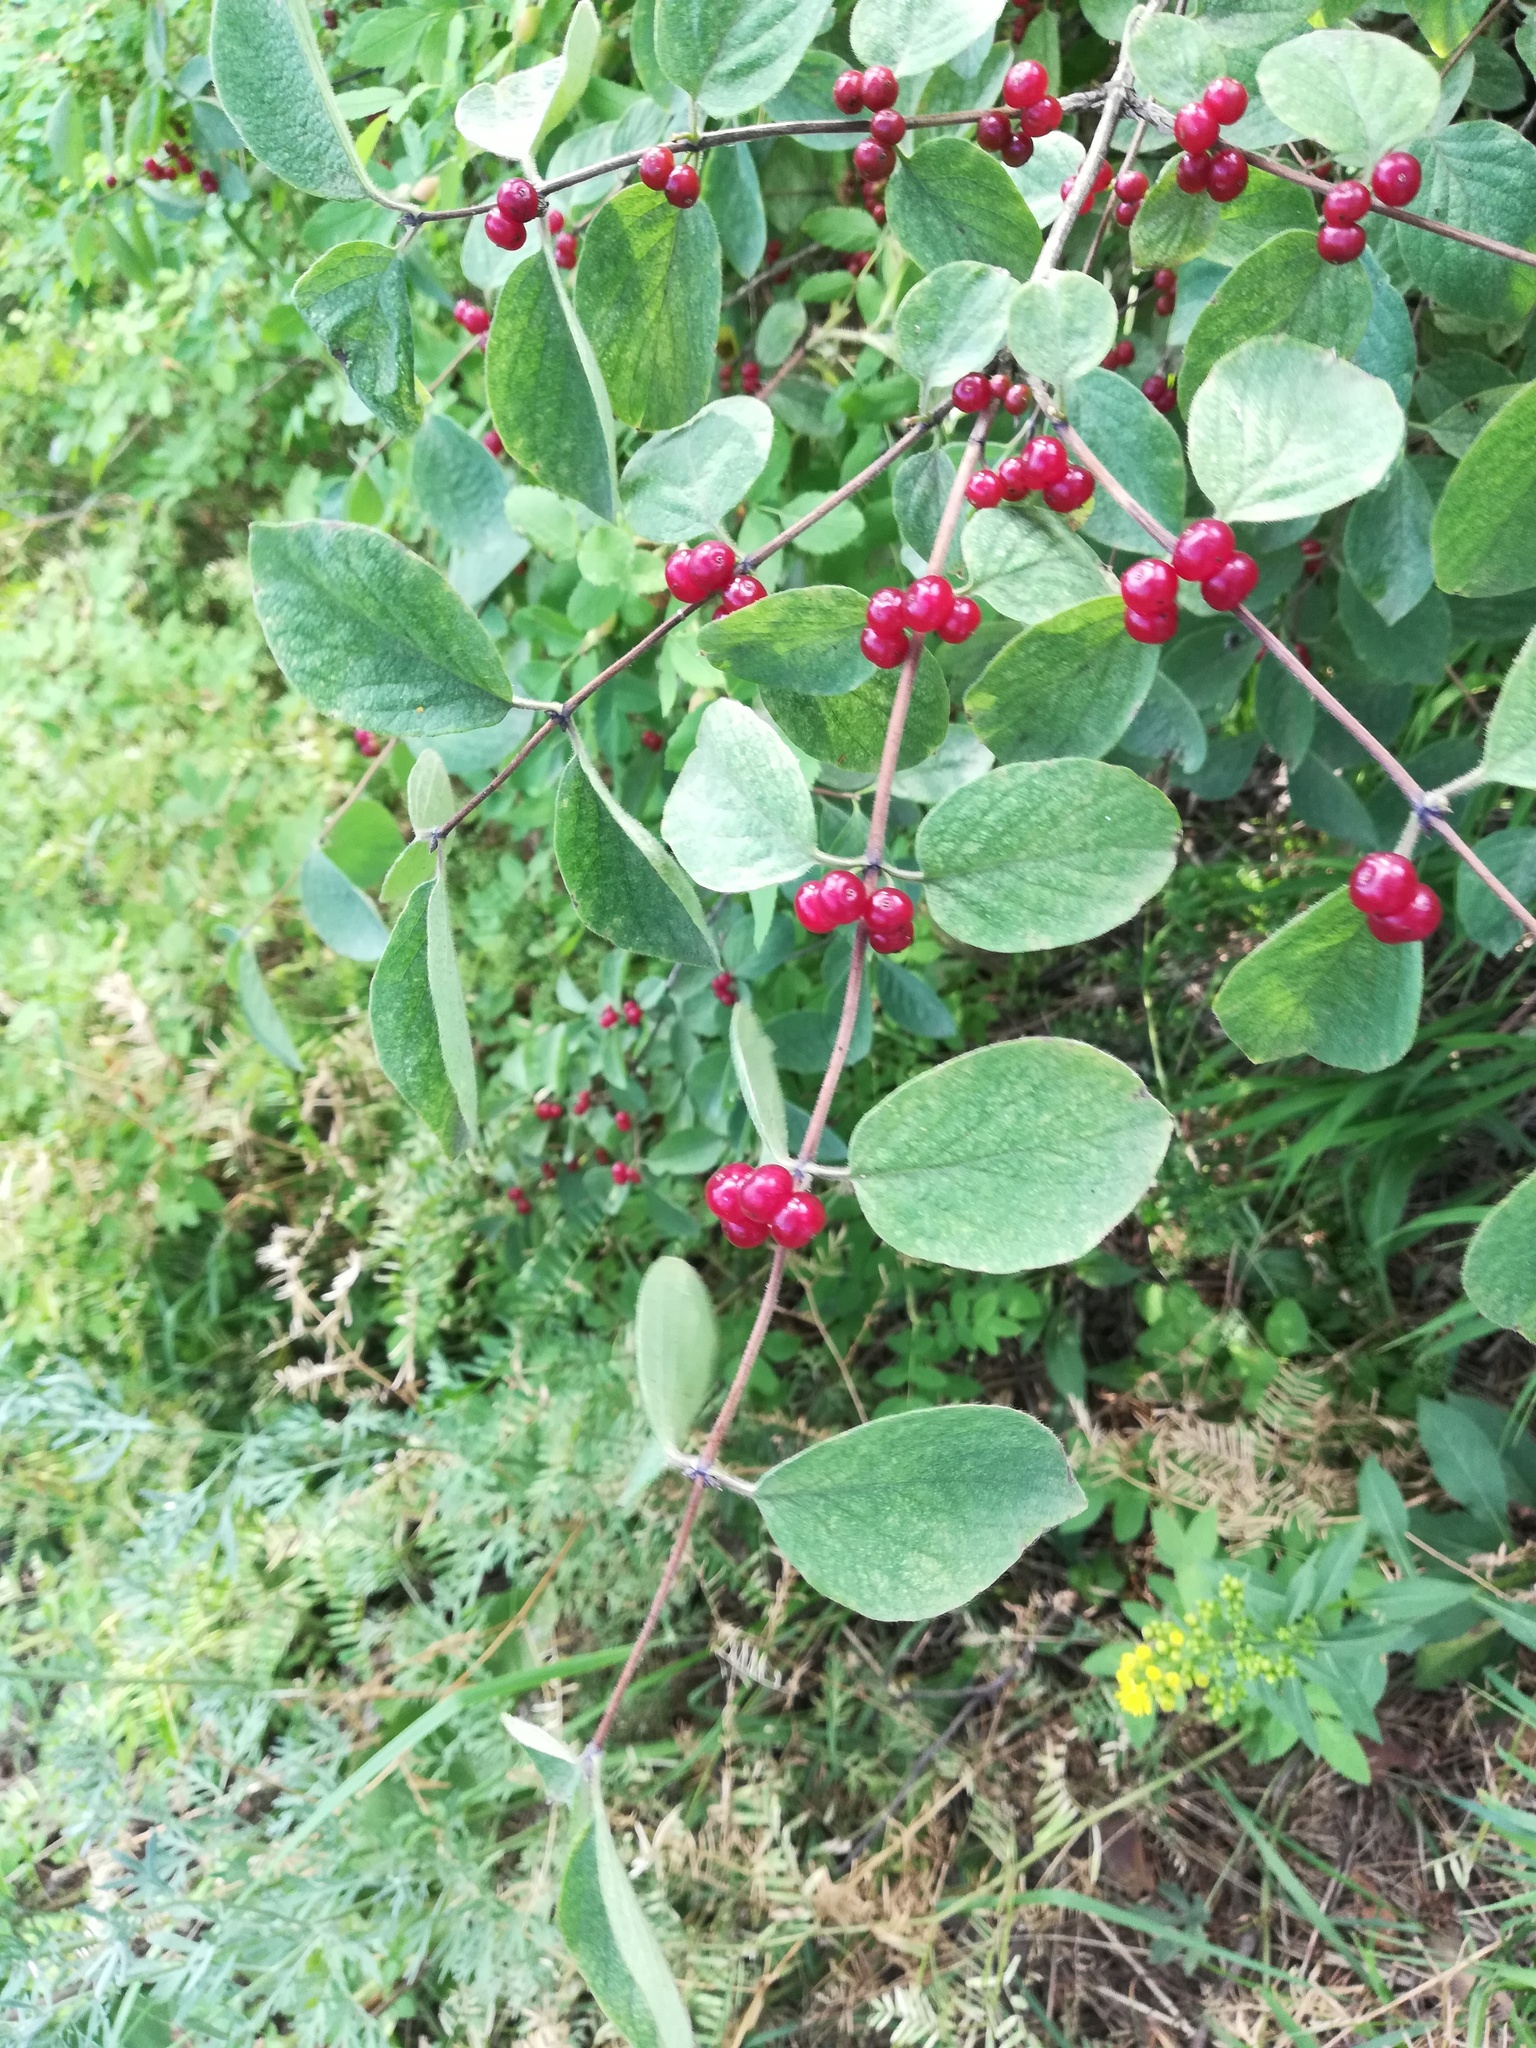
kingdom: Plantae
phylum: Tracheophyta
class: Magnoliopsida
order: Dipsacales
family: Caprifoliaceae
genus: Lonicera
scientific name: Lonicera xylosteum
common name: Fly honeysuckle
